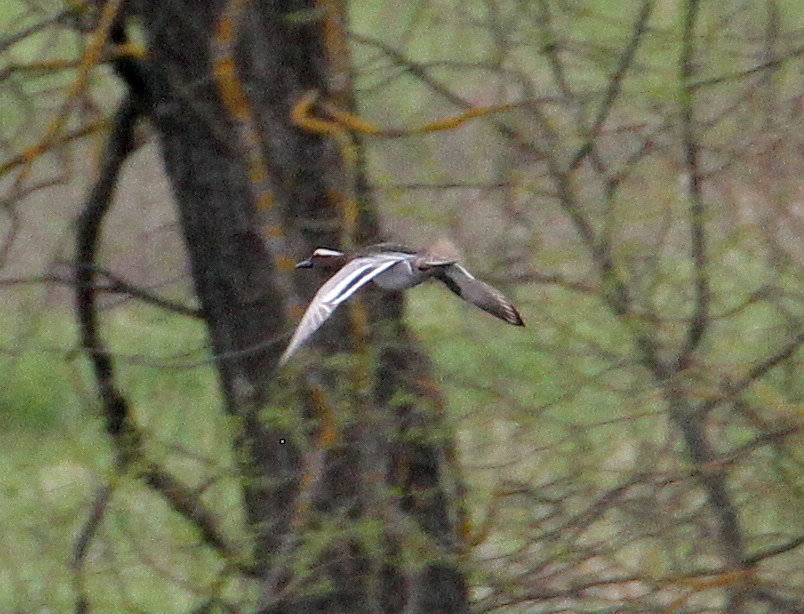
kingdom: Animalia
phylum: Chordata
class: Aves
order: Anseriformes
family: Anatidae
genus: Spatula
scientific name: Spatula querquedula
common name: Garganey
